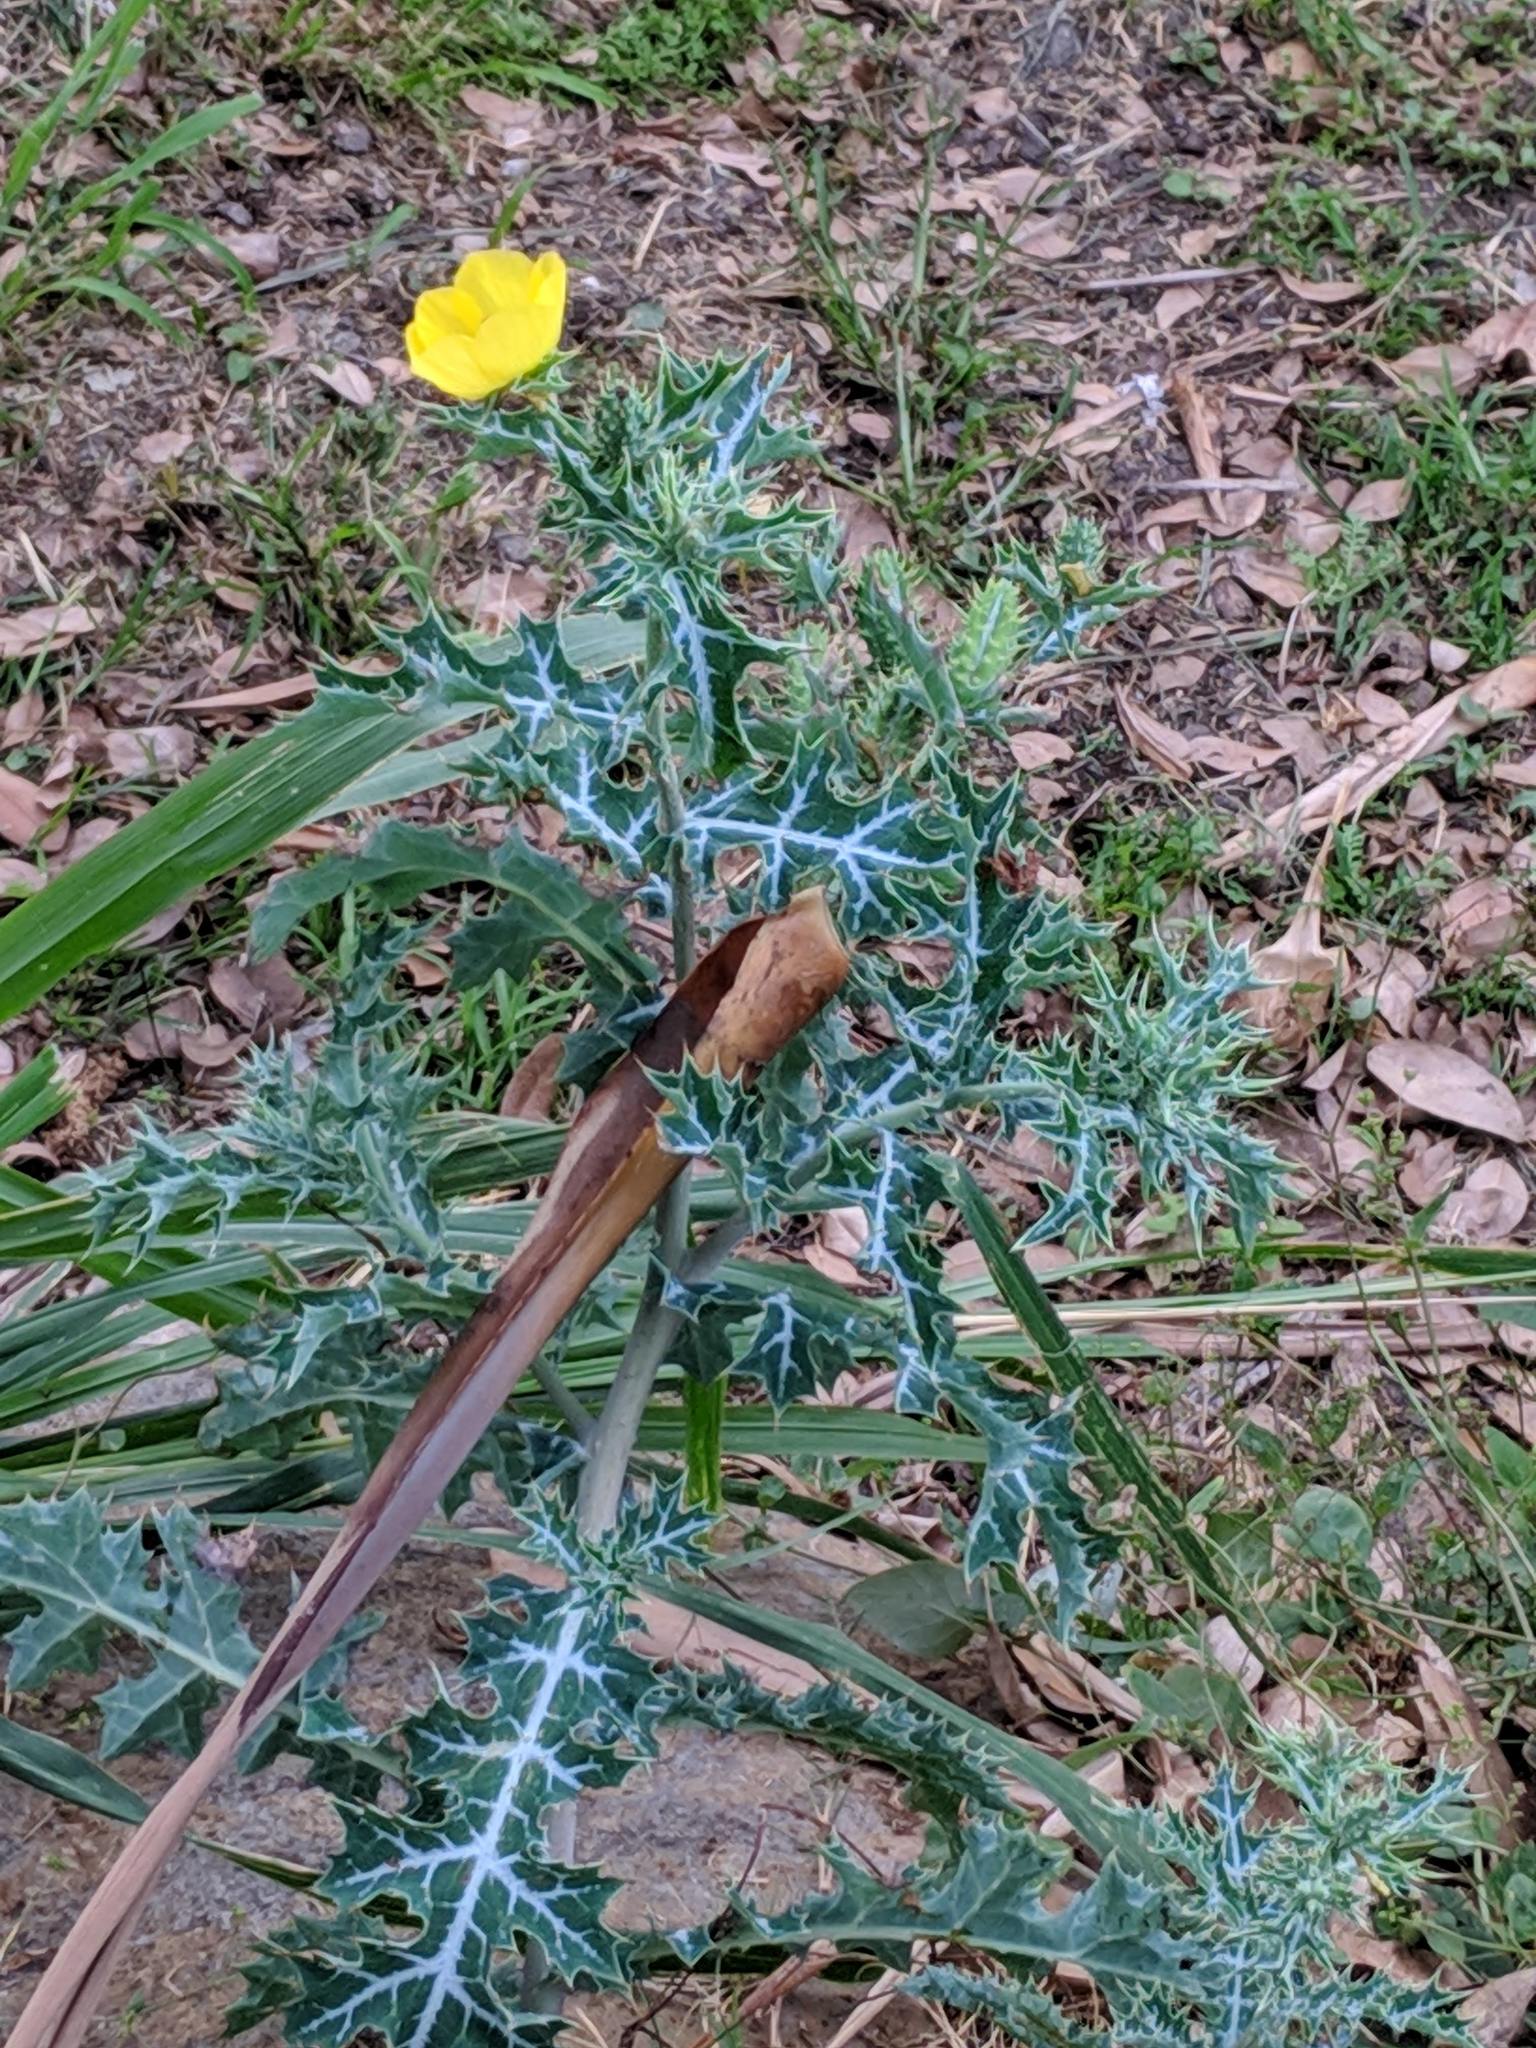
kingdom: Plantae
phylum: Tracheophyta
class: Magnoliopsida
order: Ranunculales
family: Papaveraceae
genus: Argemone
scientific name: Argemone mexicana
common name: Mexican poppy
